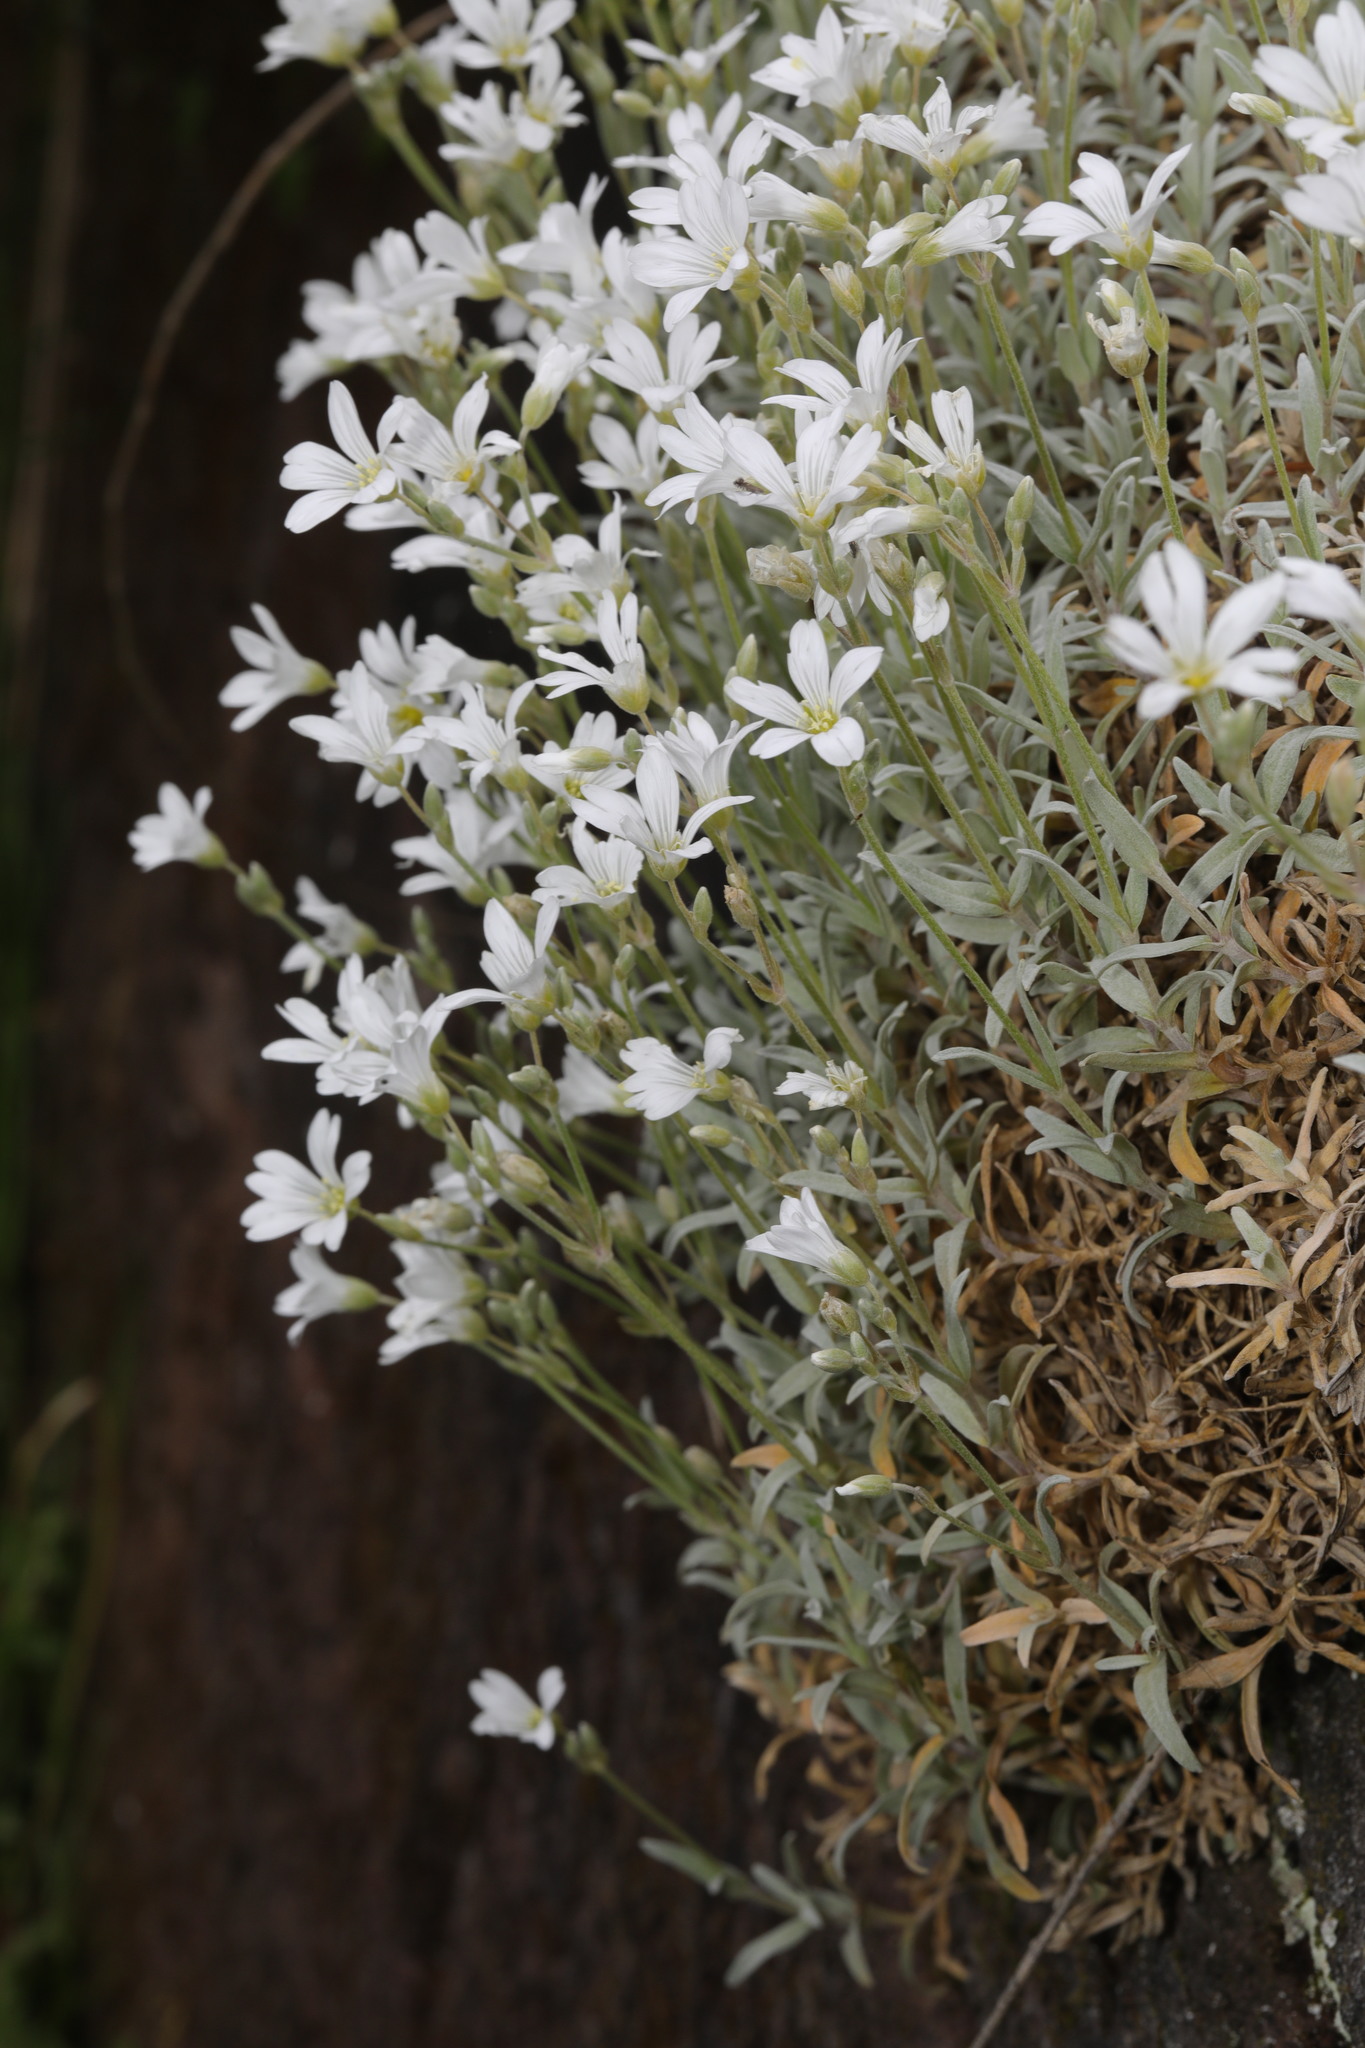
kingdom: Plantae
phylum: Tracheophyta
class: Magnoliopsida
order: Caryophyllales
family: Caryophyllaceae
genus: Cerastium
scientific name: Cerastium tomentosum
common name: Snow-in-summer
